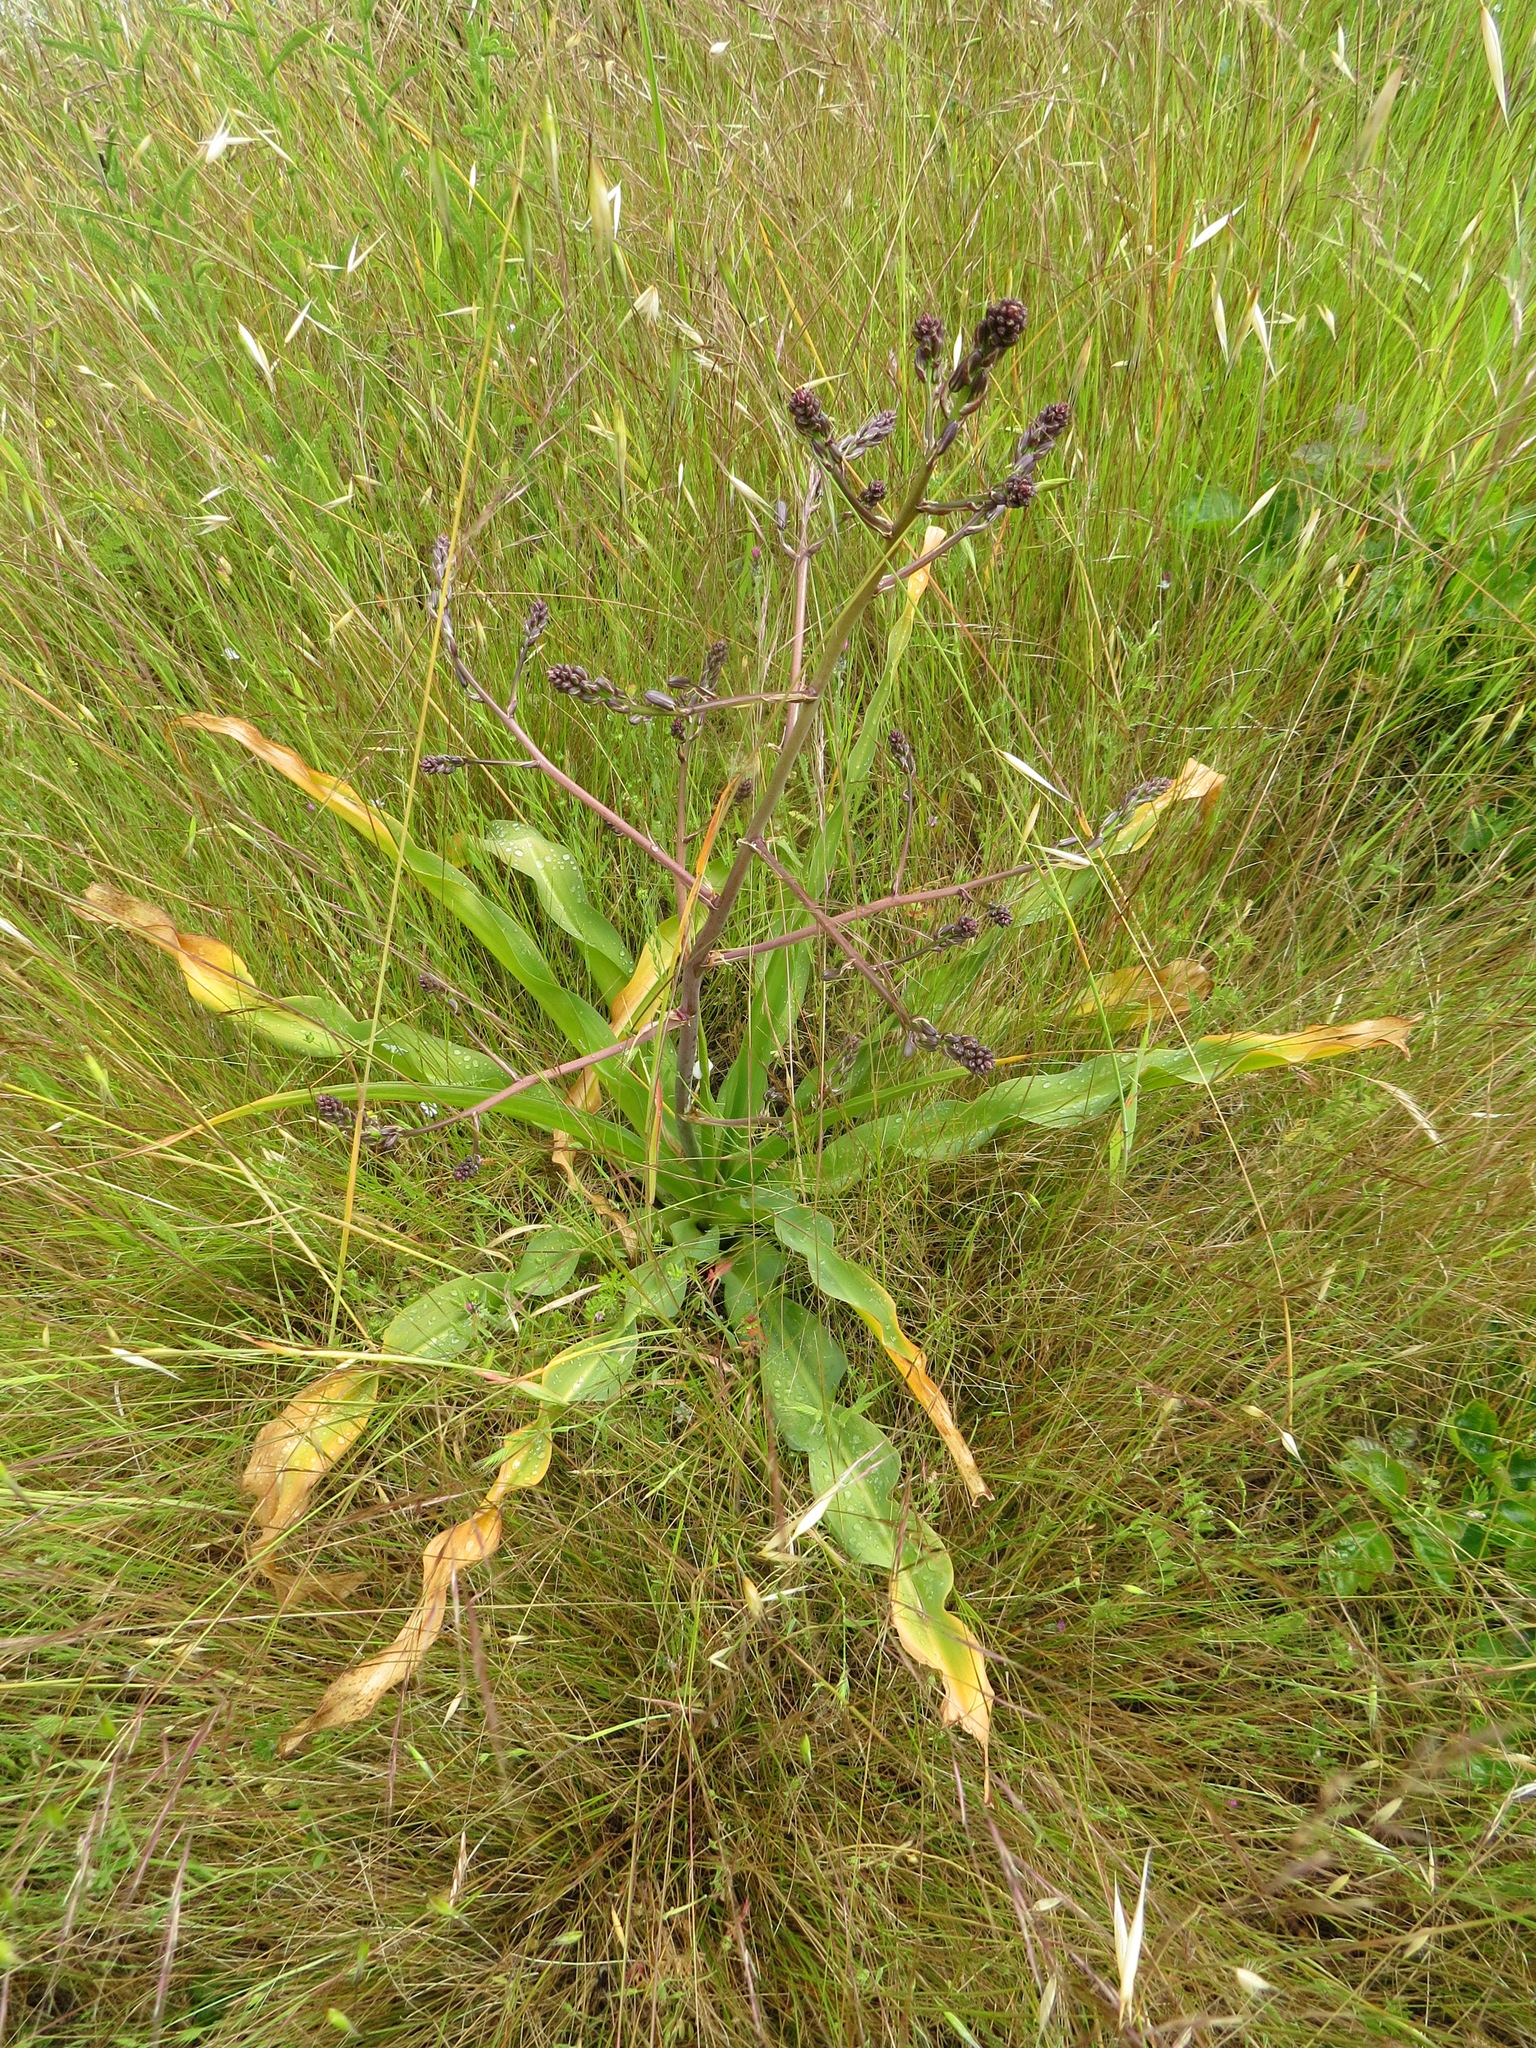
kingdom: Plantae
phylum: Tracheophyta
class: Liliopsida
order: Asparagales
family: Asparagaceae
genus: Chlorogalum
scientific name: Chlorogalum pomeridianum
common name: Amole
